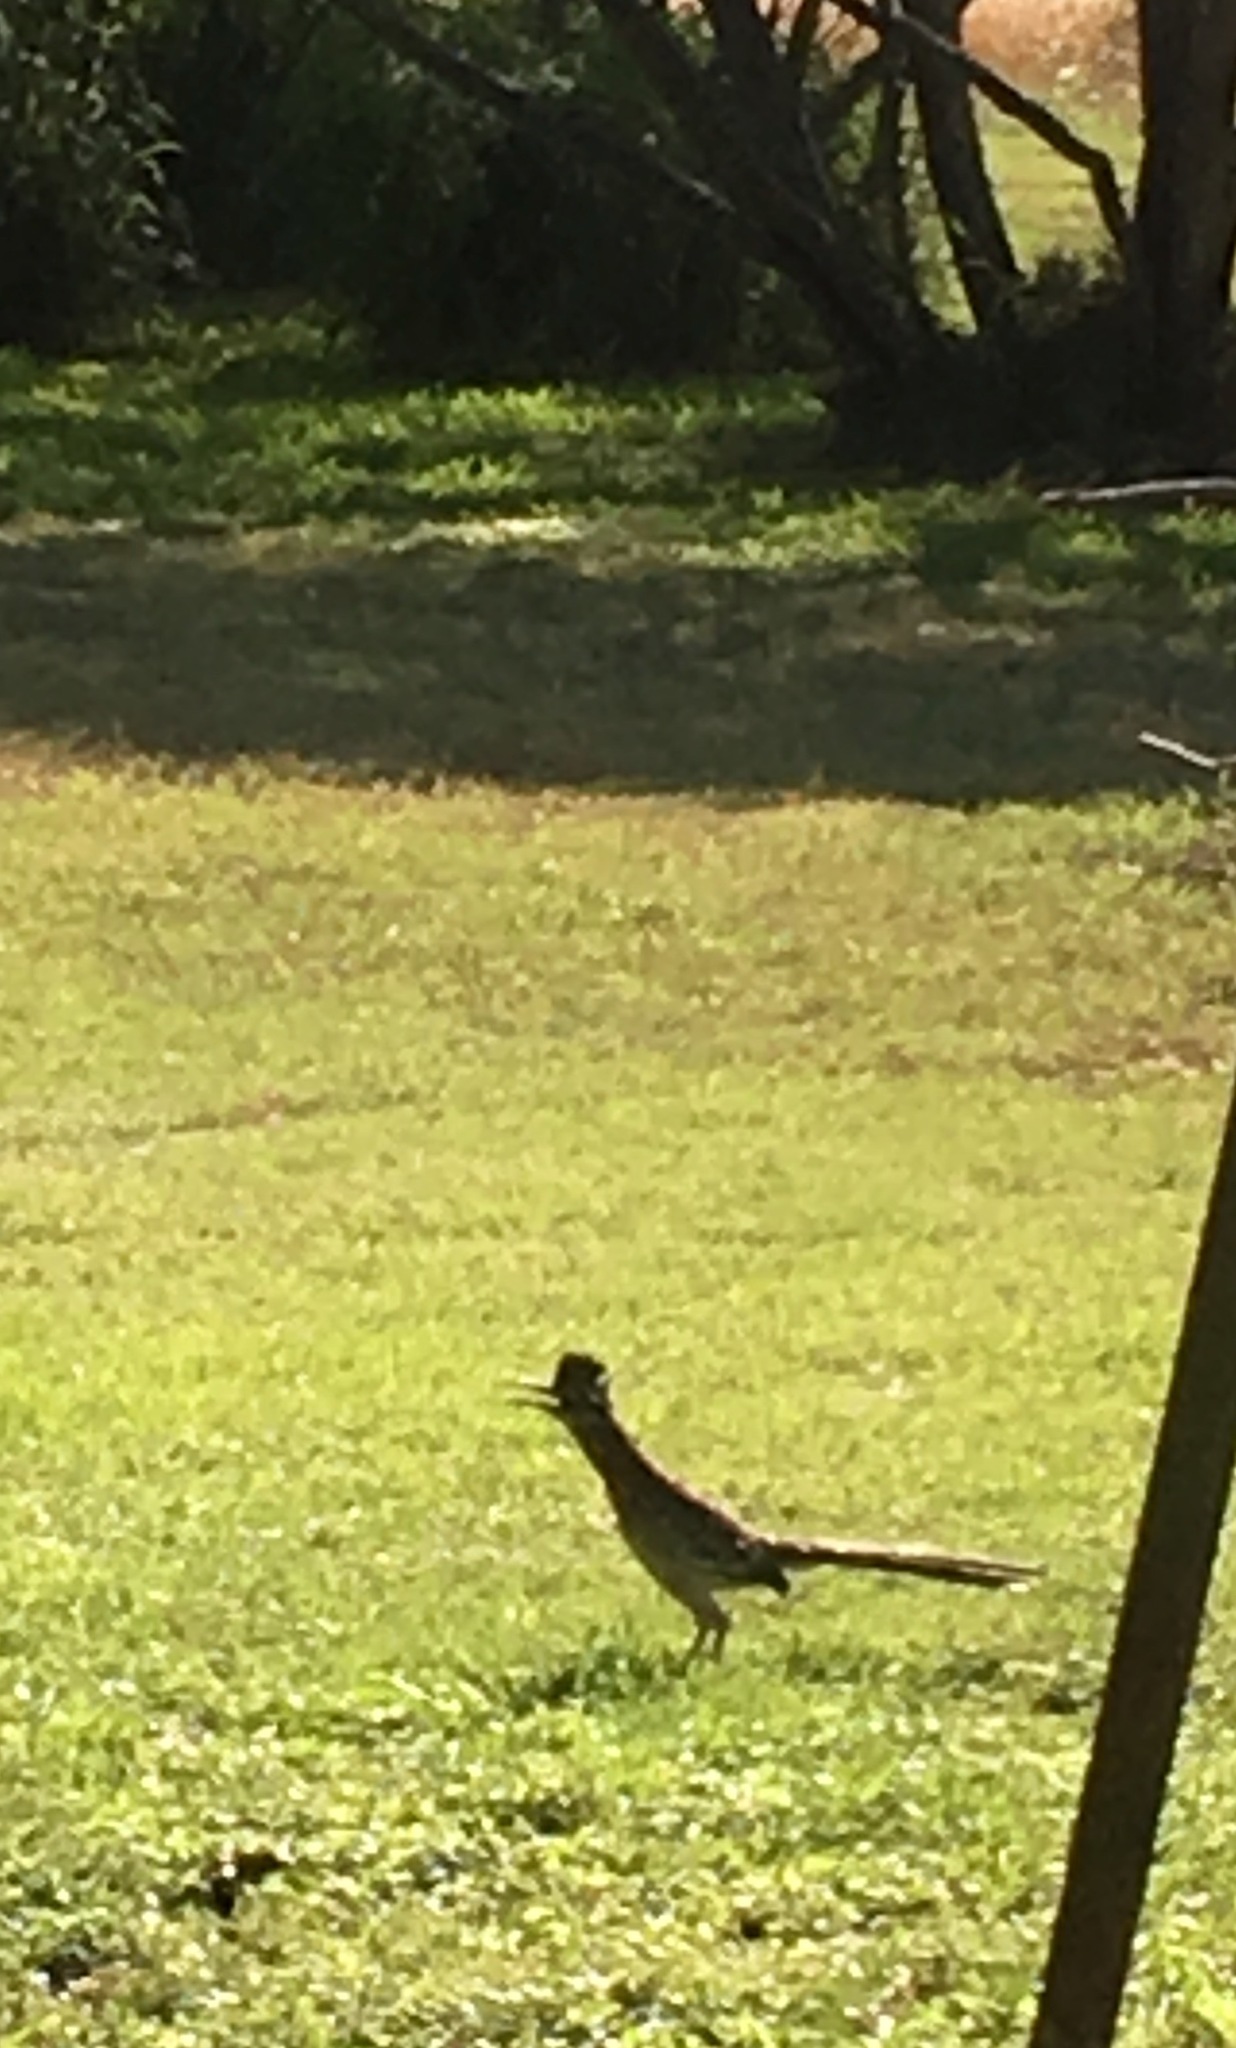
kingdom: Animalia
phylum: Chordata
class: Aves
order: Cuculiformes
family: Cuculidae
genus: Geococcyx
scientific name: Geococcyx californianus
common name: Greater roadrunner
